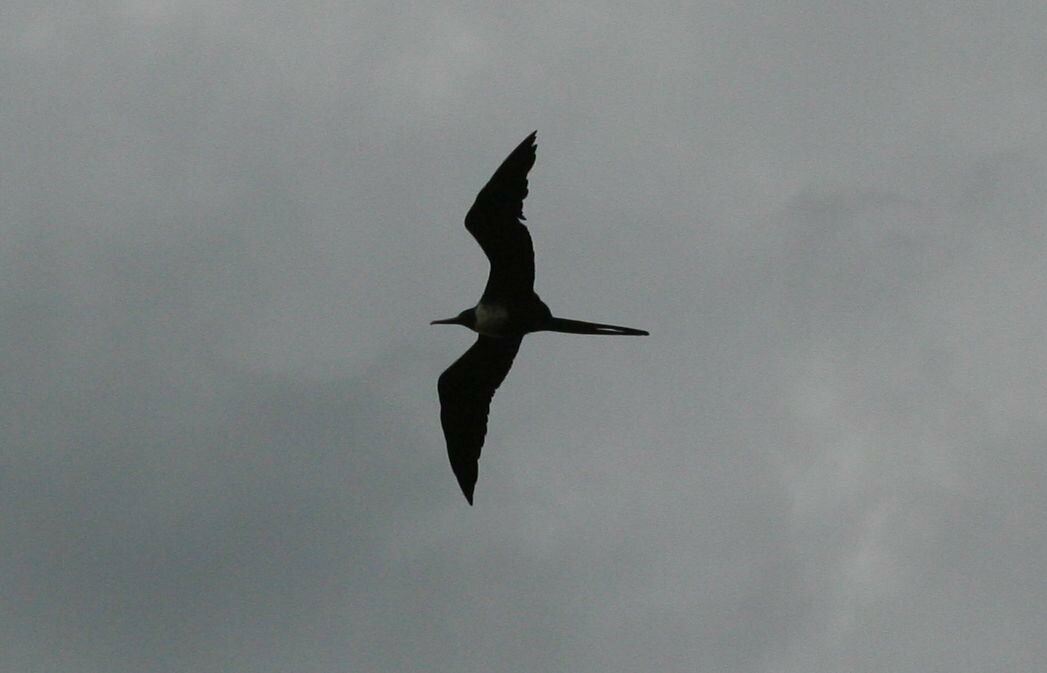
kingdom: Animalia
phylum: Chordata
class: Aves
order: Suliformes
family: Fregatidae
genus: Fregata
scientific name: Fregata magnificens
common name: Magnificent frigatebird
